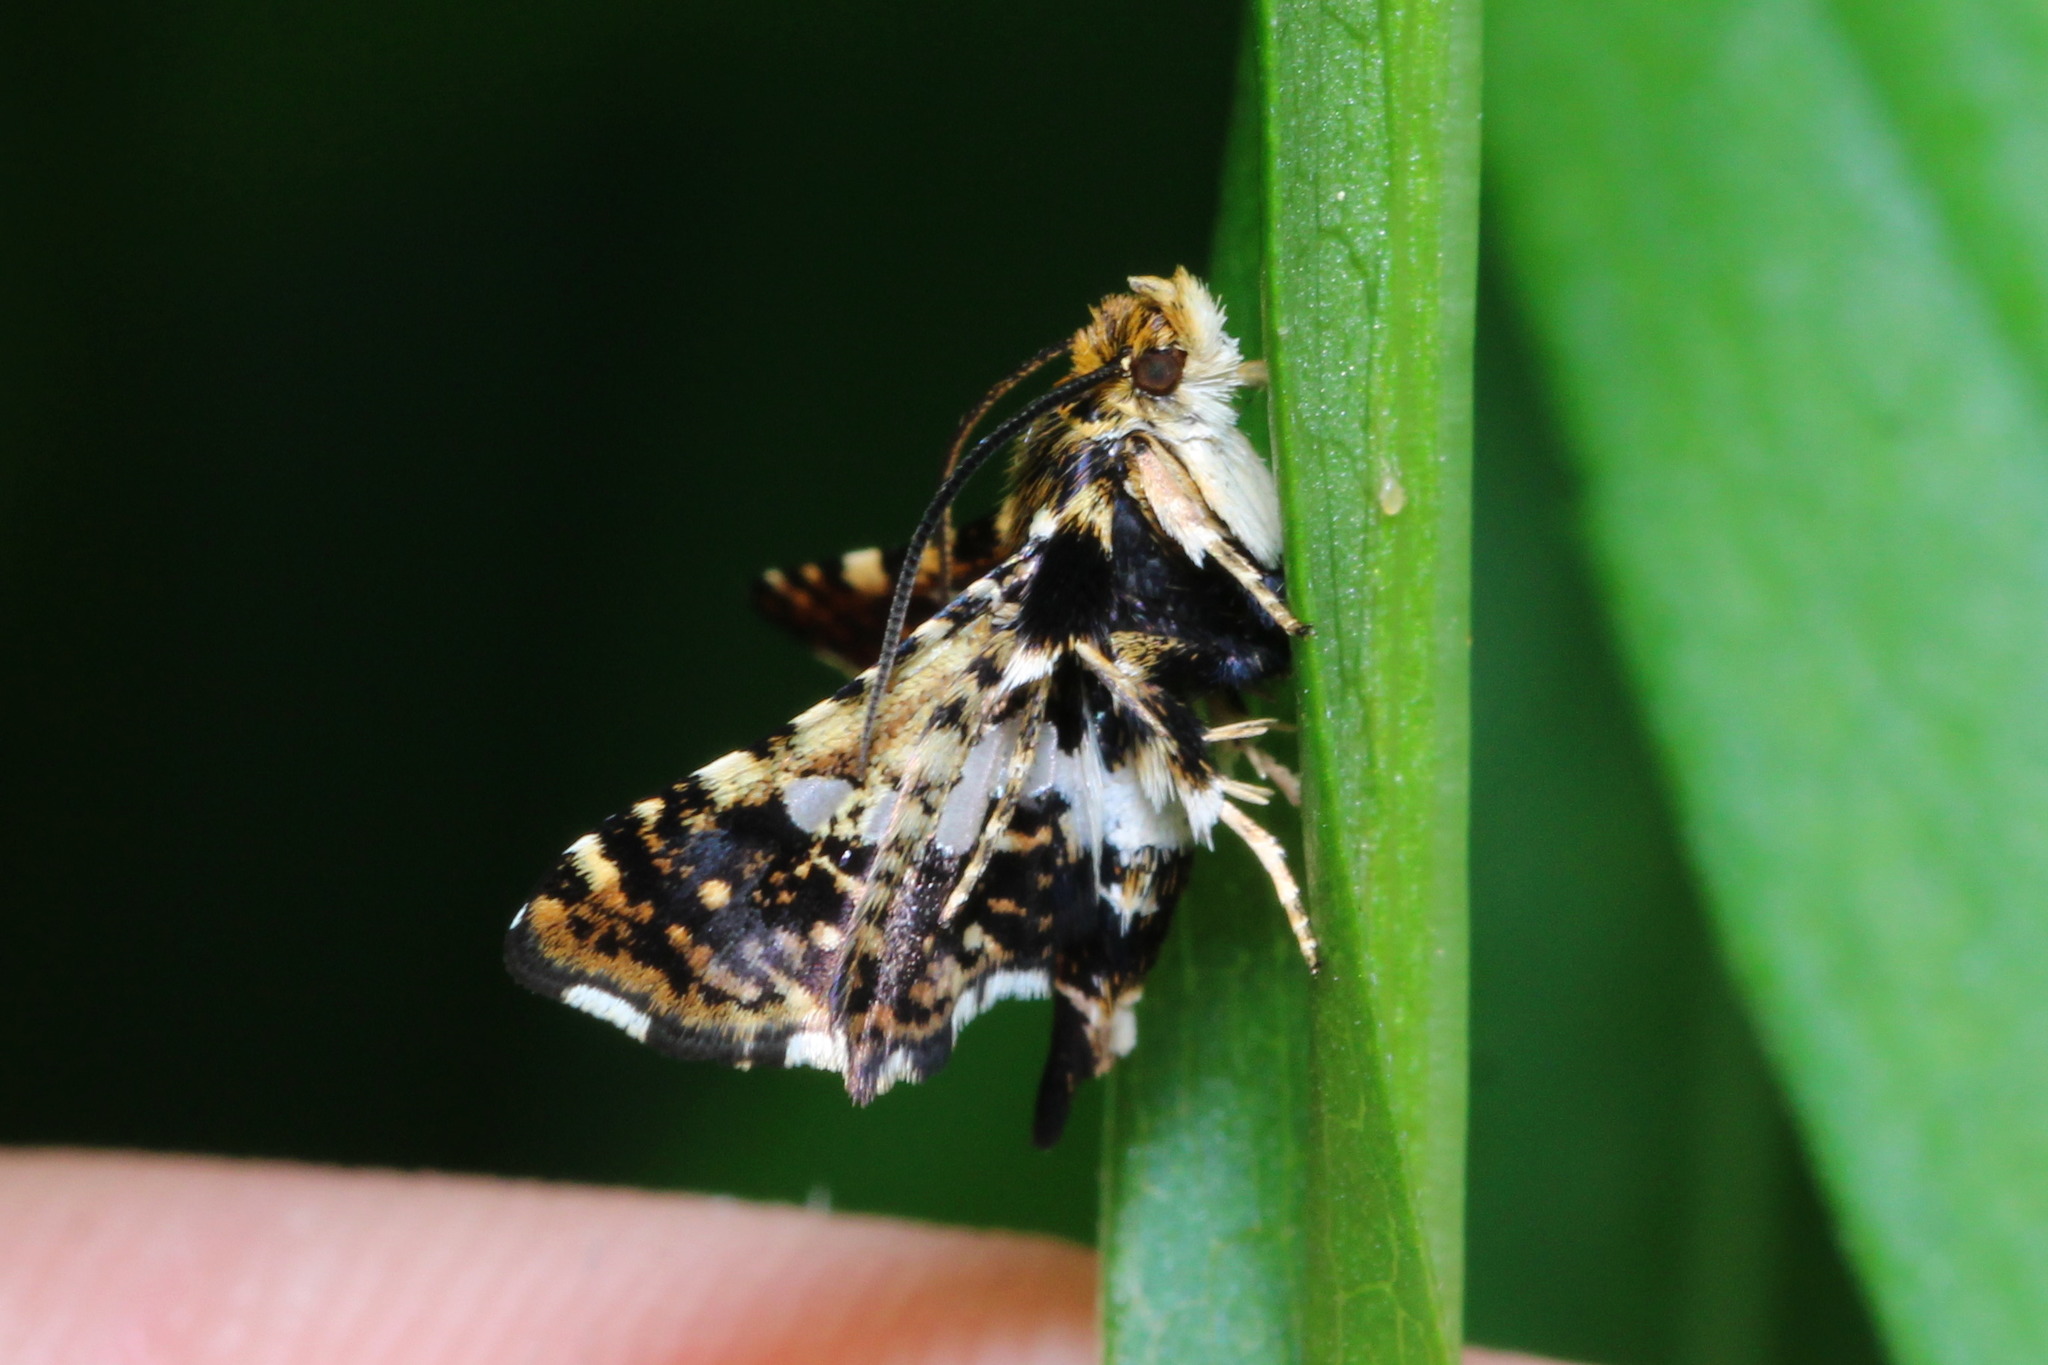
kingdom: Animalia
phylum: Arthropoda
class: Insecta
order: Lepidoptera
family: Thyrididae
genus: Thyris
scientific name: Thyris fenestrella
